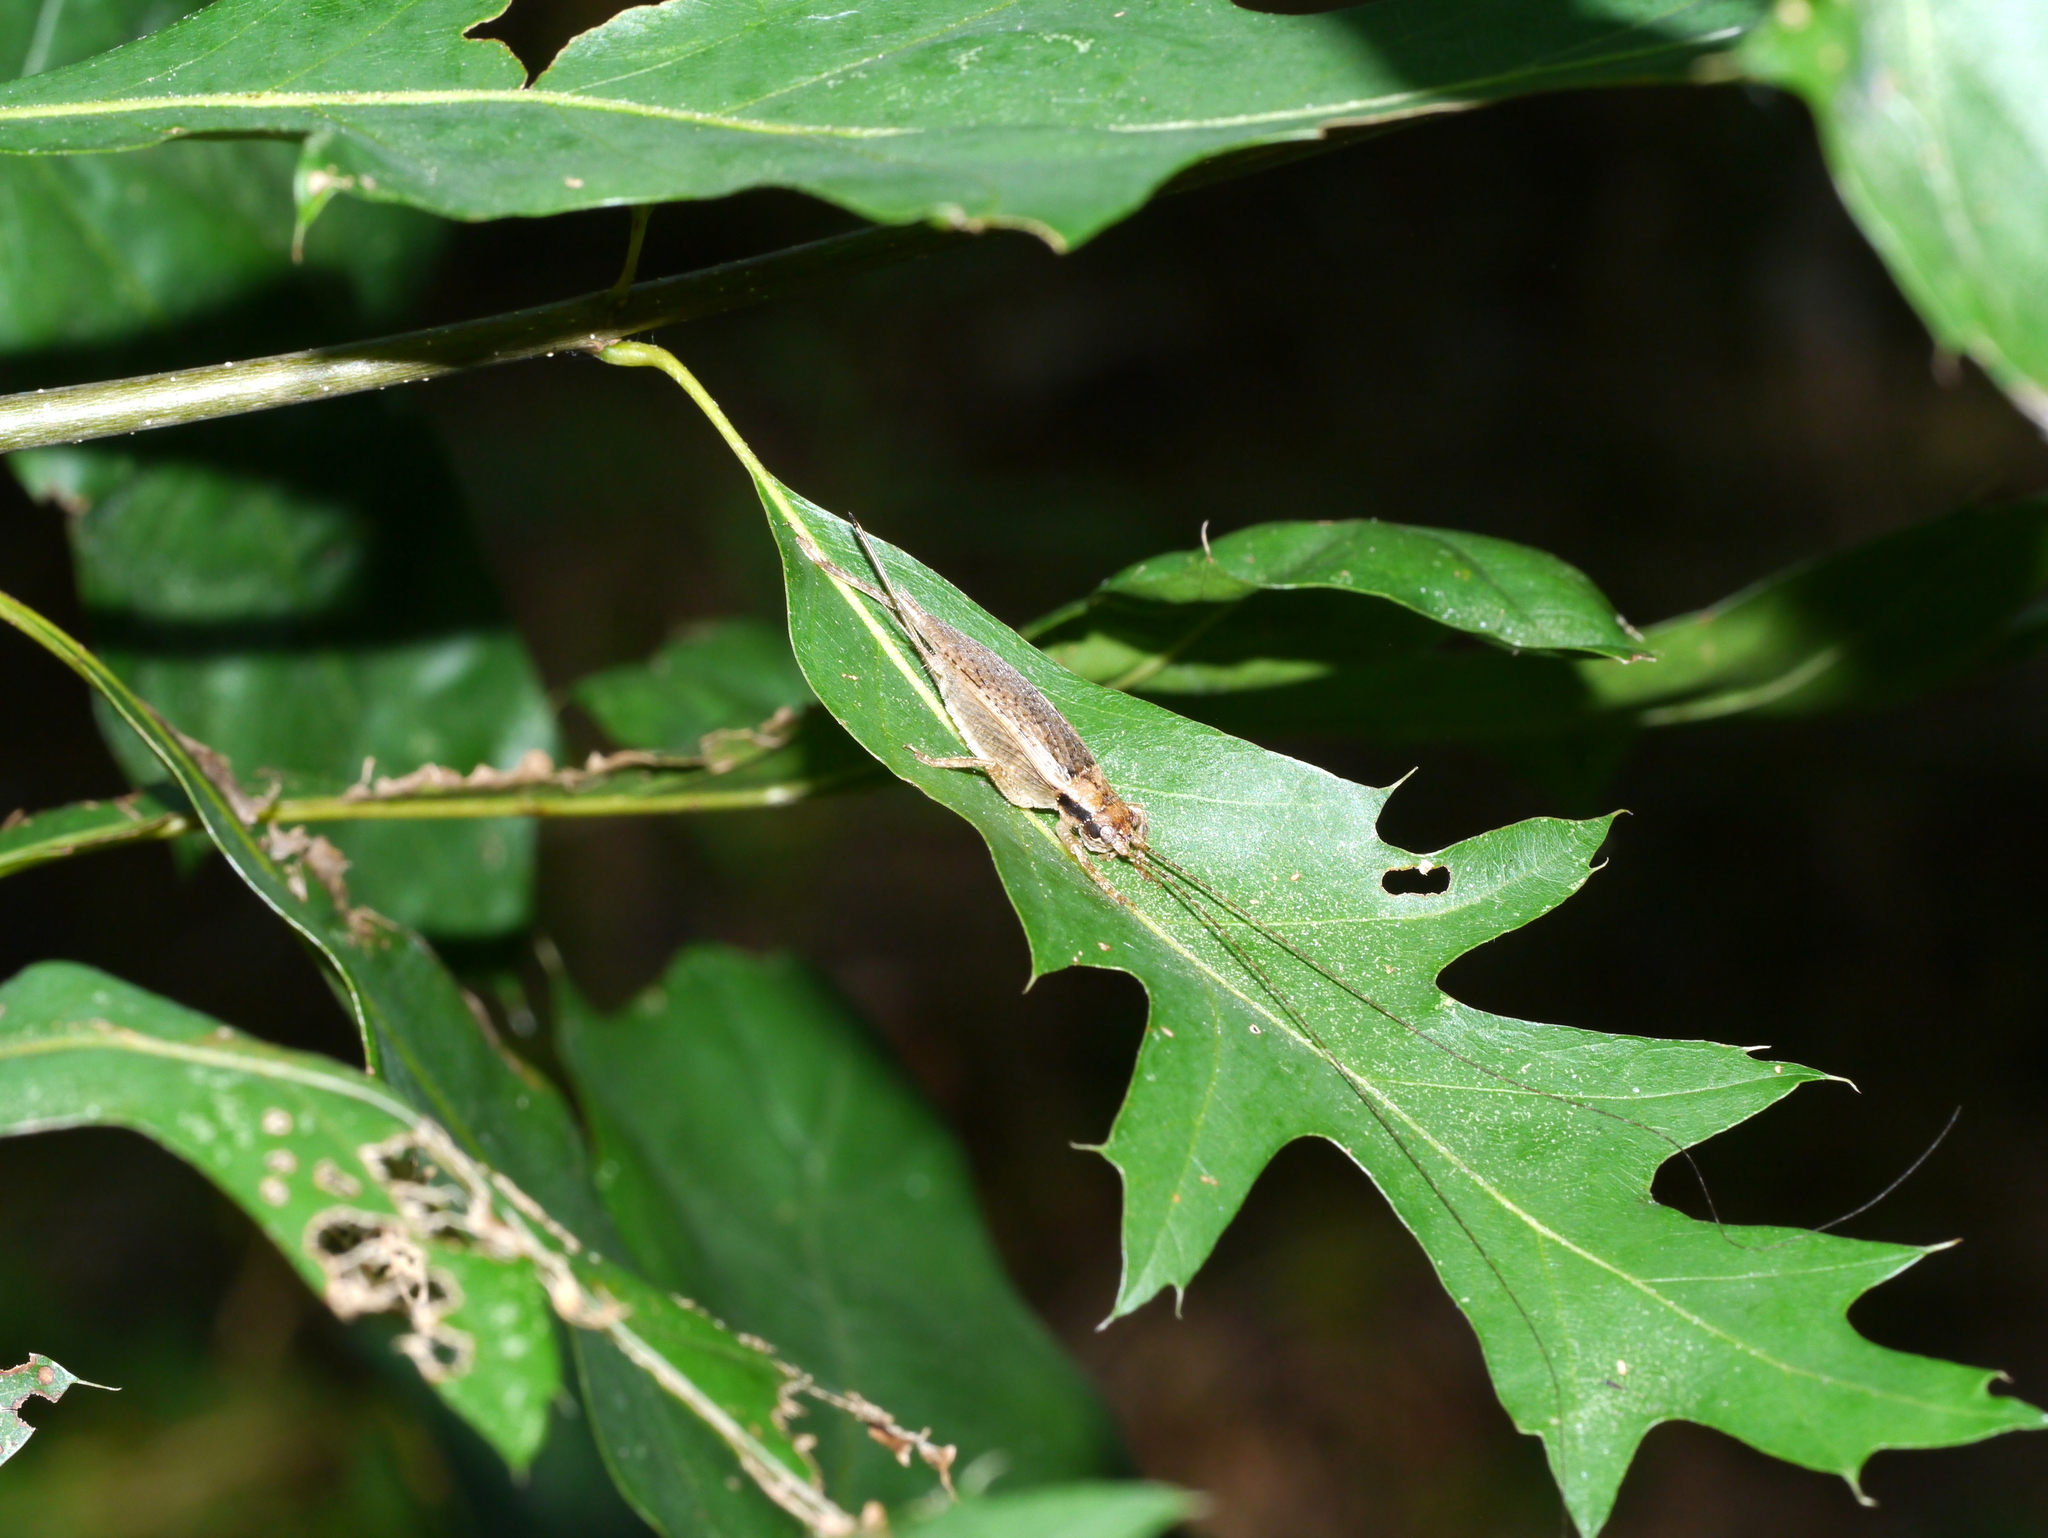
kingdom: Animalia
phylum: Arthropoda
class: Insecta
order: Orthoptera
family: Gryllidae
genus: Hapithus
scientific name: Hapithus saltator
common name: Jumping bush cricket
